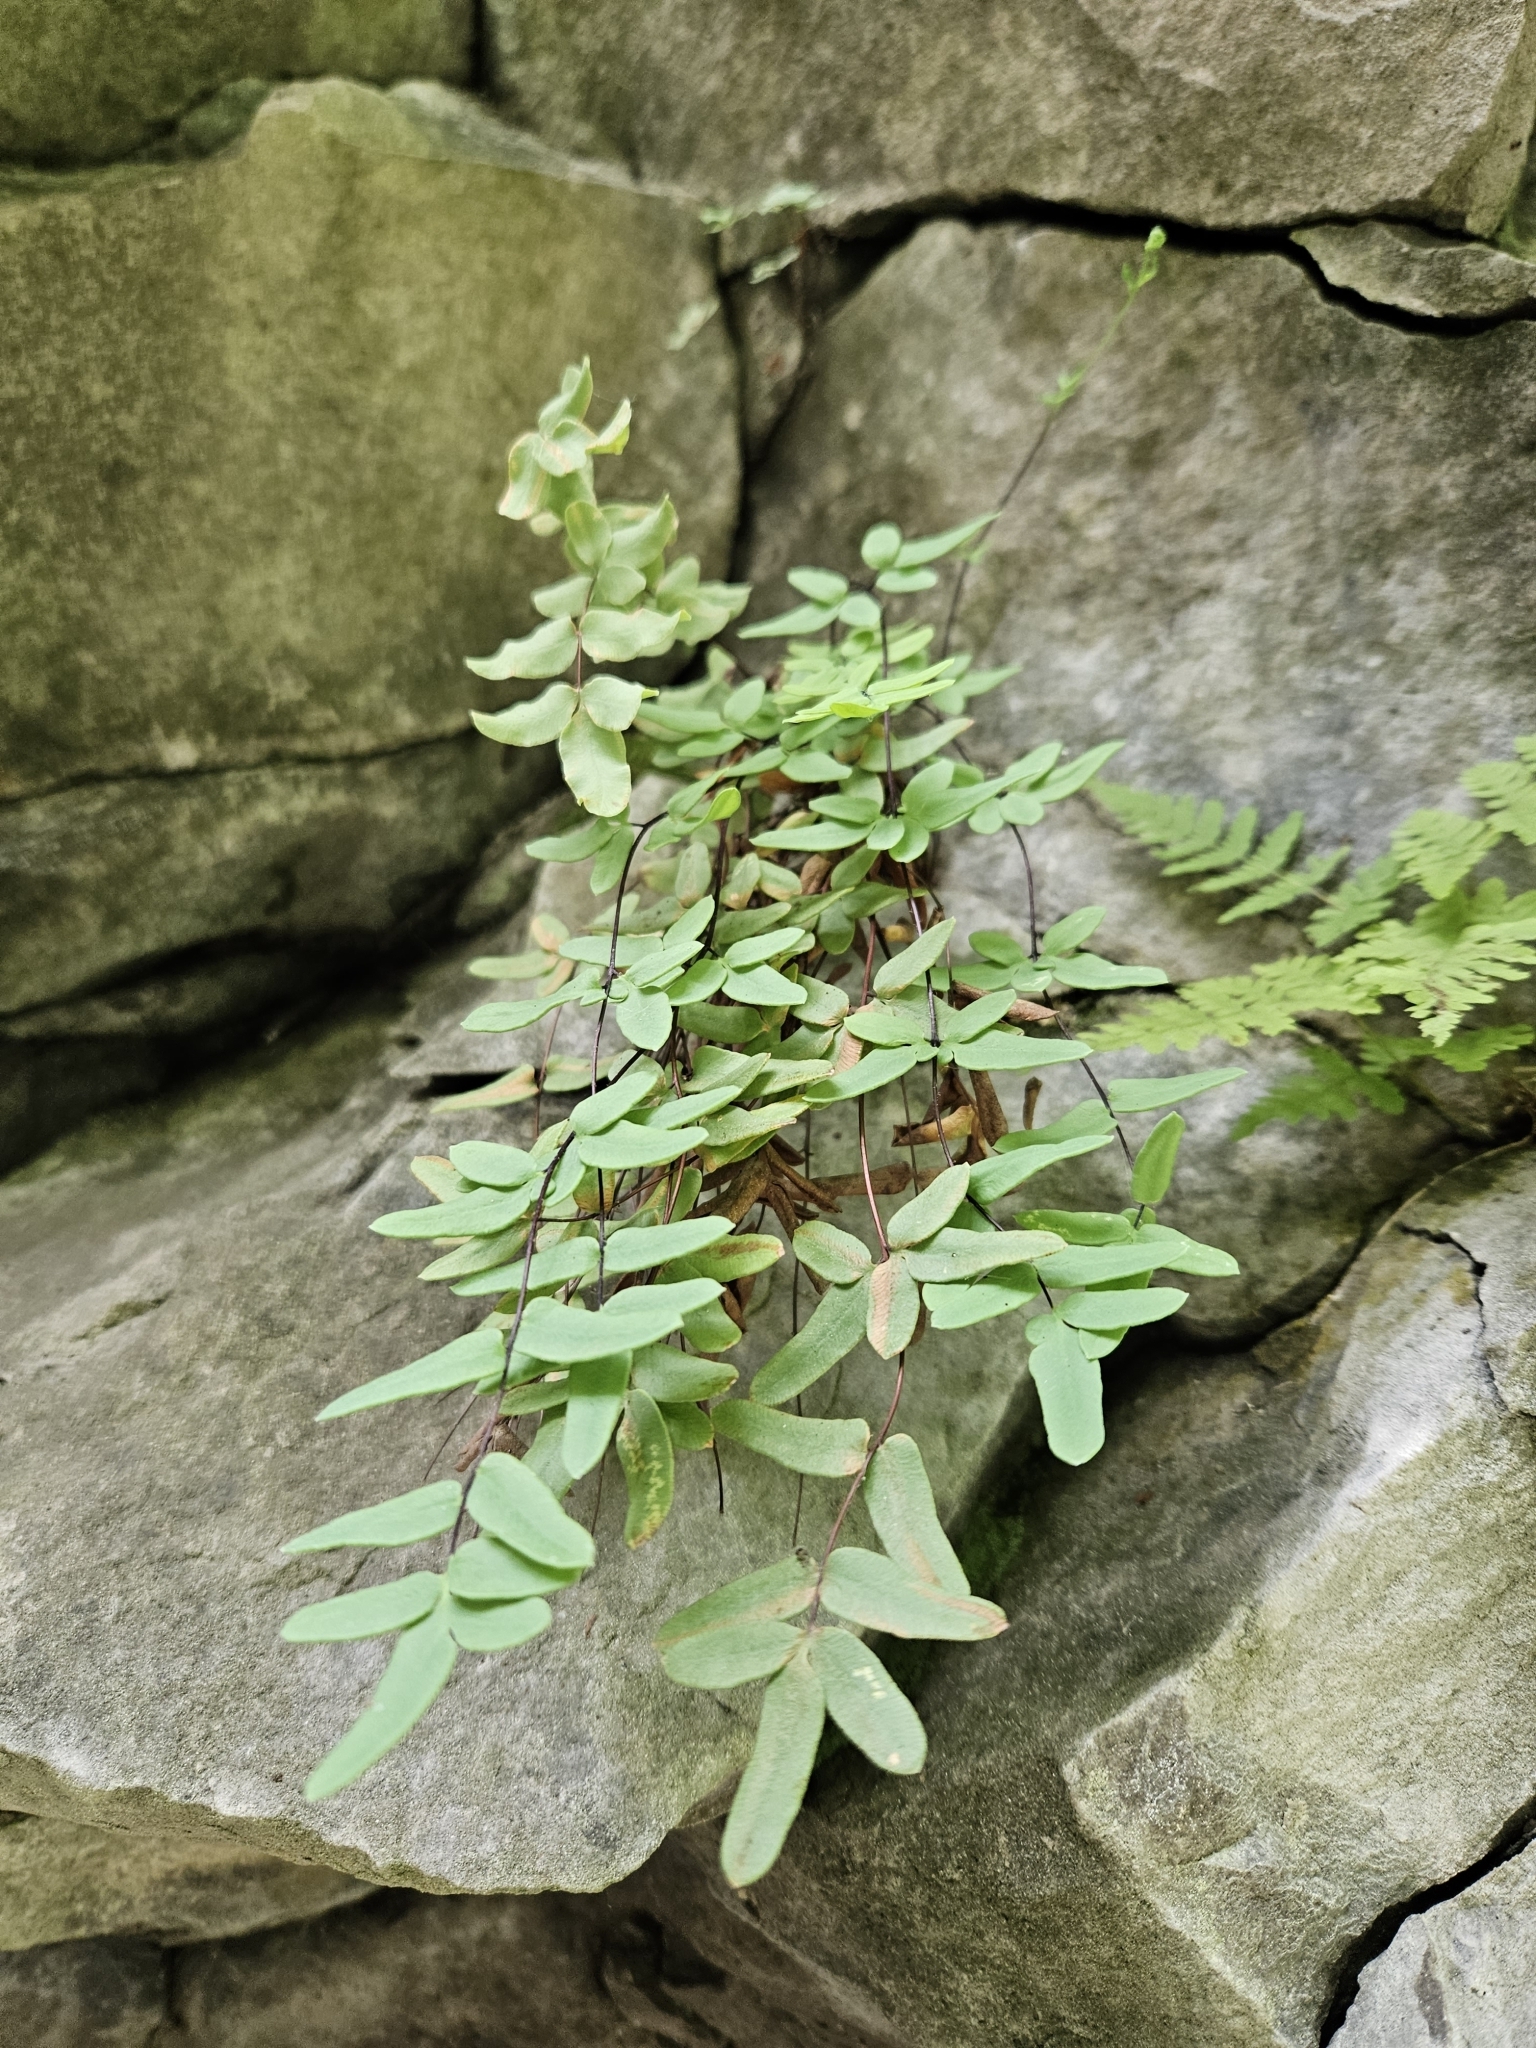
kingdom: Plantae
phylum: Tracheophyta
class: Polypodiopsida
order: Polypodiales
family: Pteridaceae
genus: Pellaea
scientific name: Pellaea glabella
